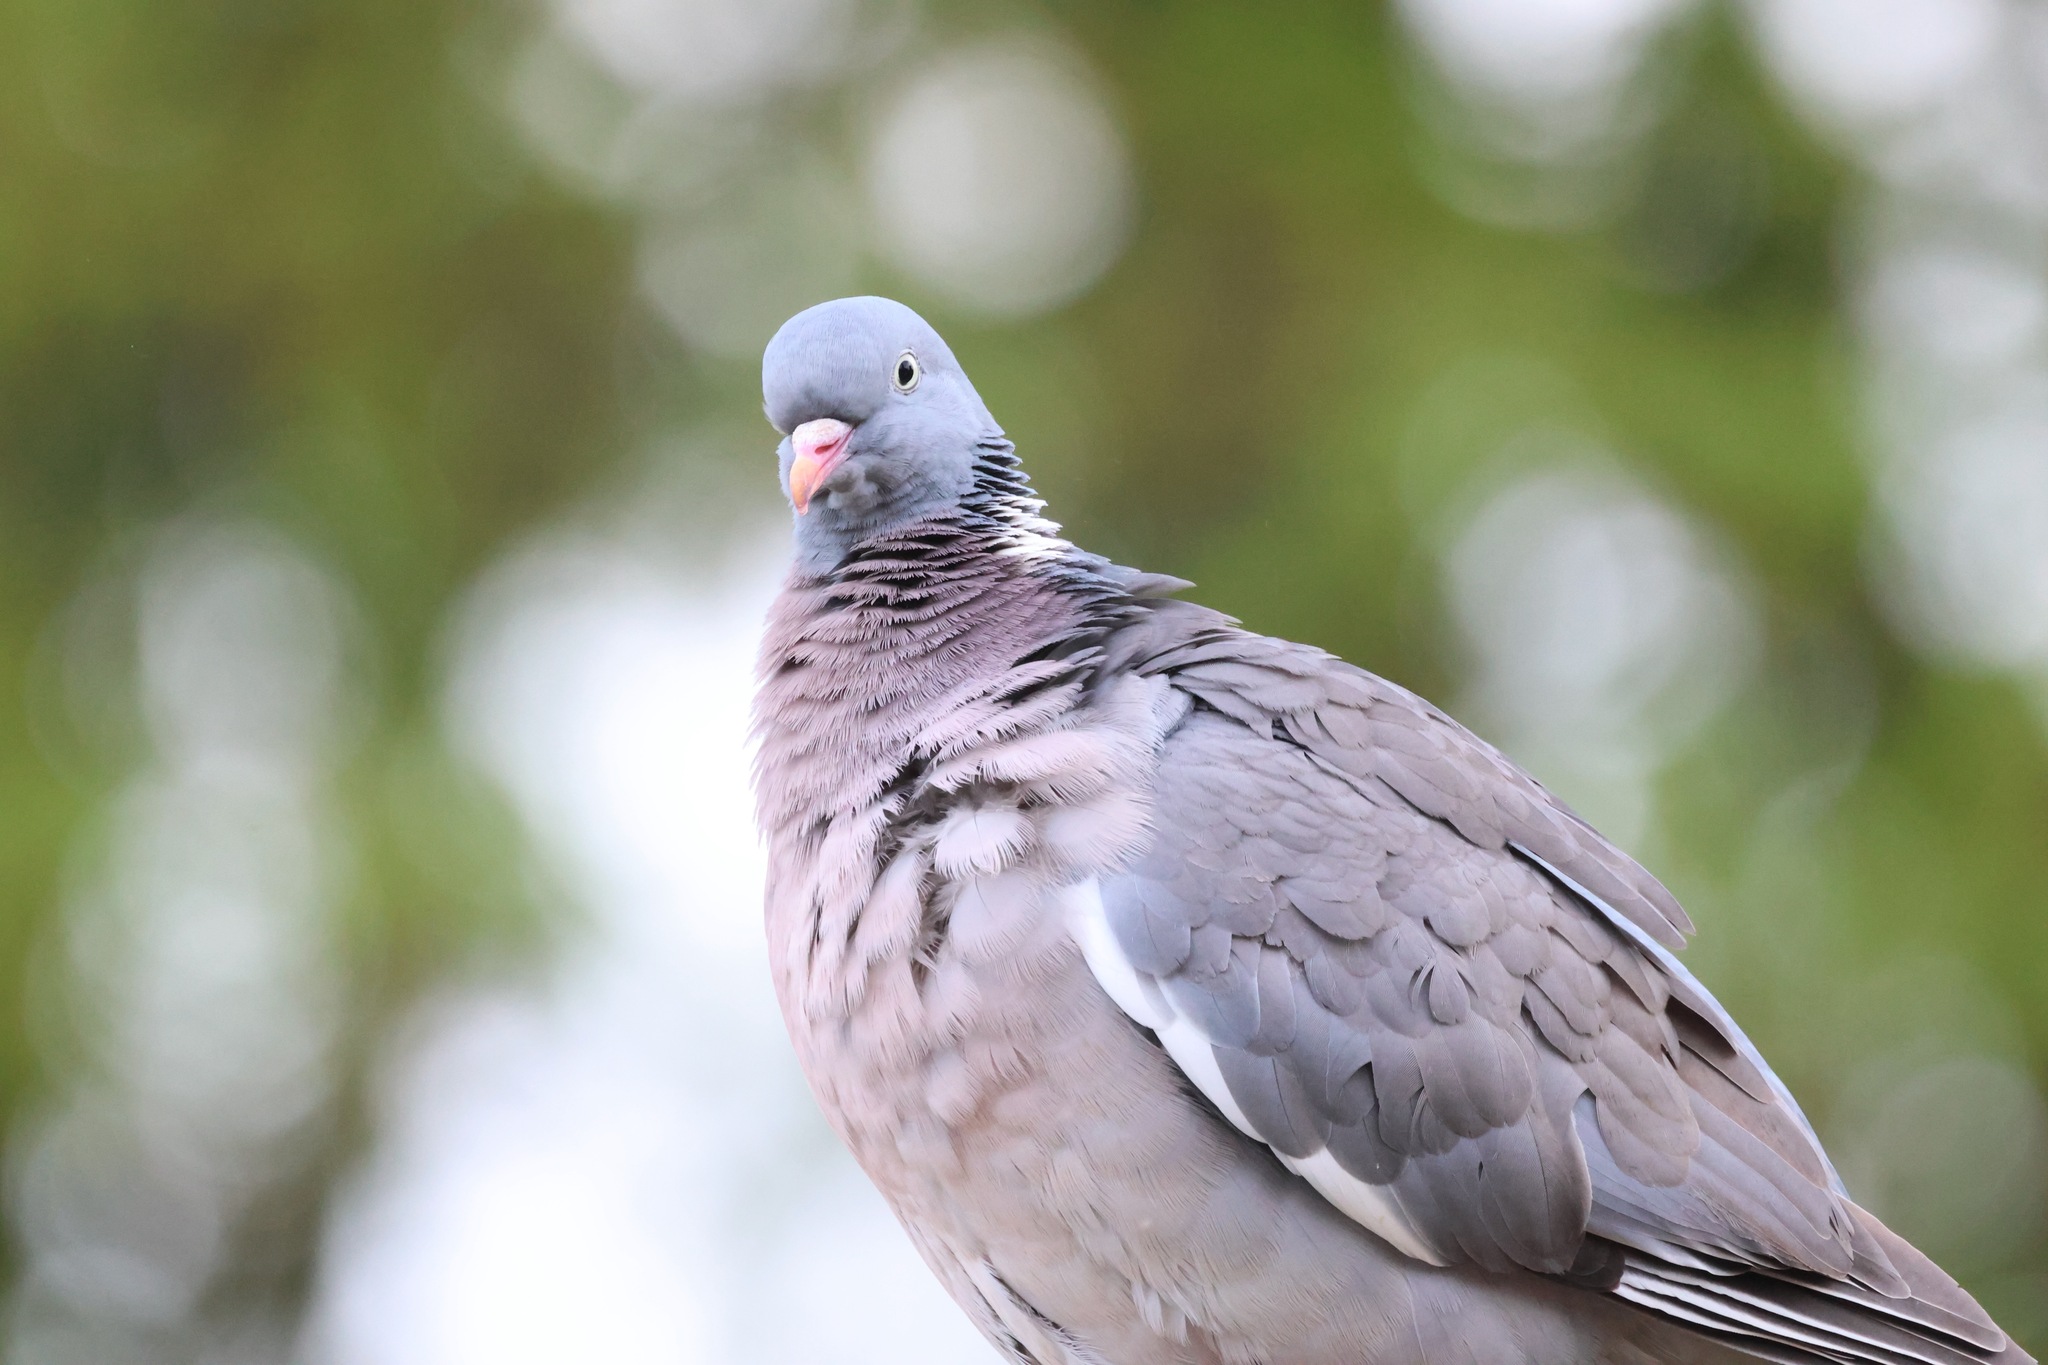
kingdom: Animalia
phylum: Chordata
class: Aves
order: Columbiformes
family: Columbidae
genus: Columba
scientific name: Columba palumbus
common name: Common wood pigeon
